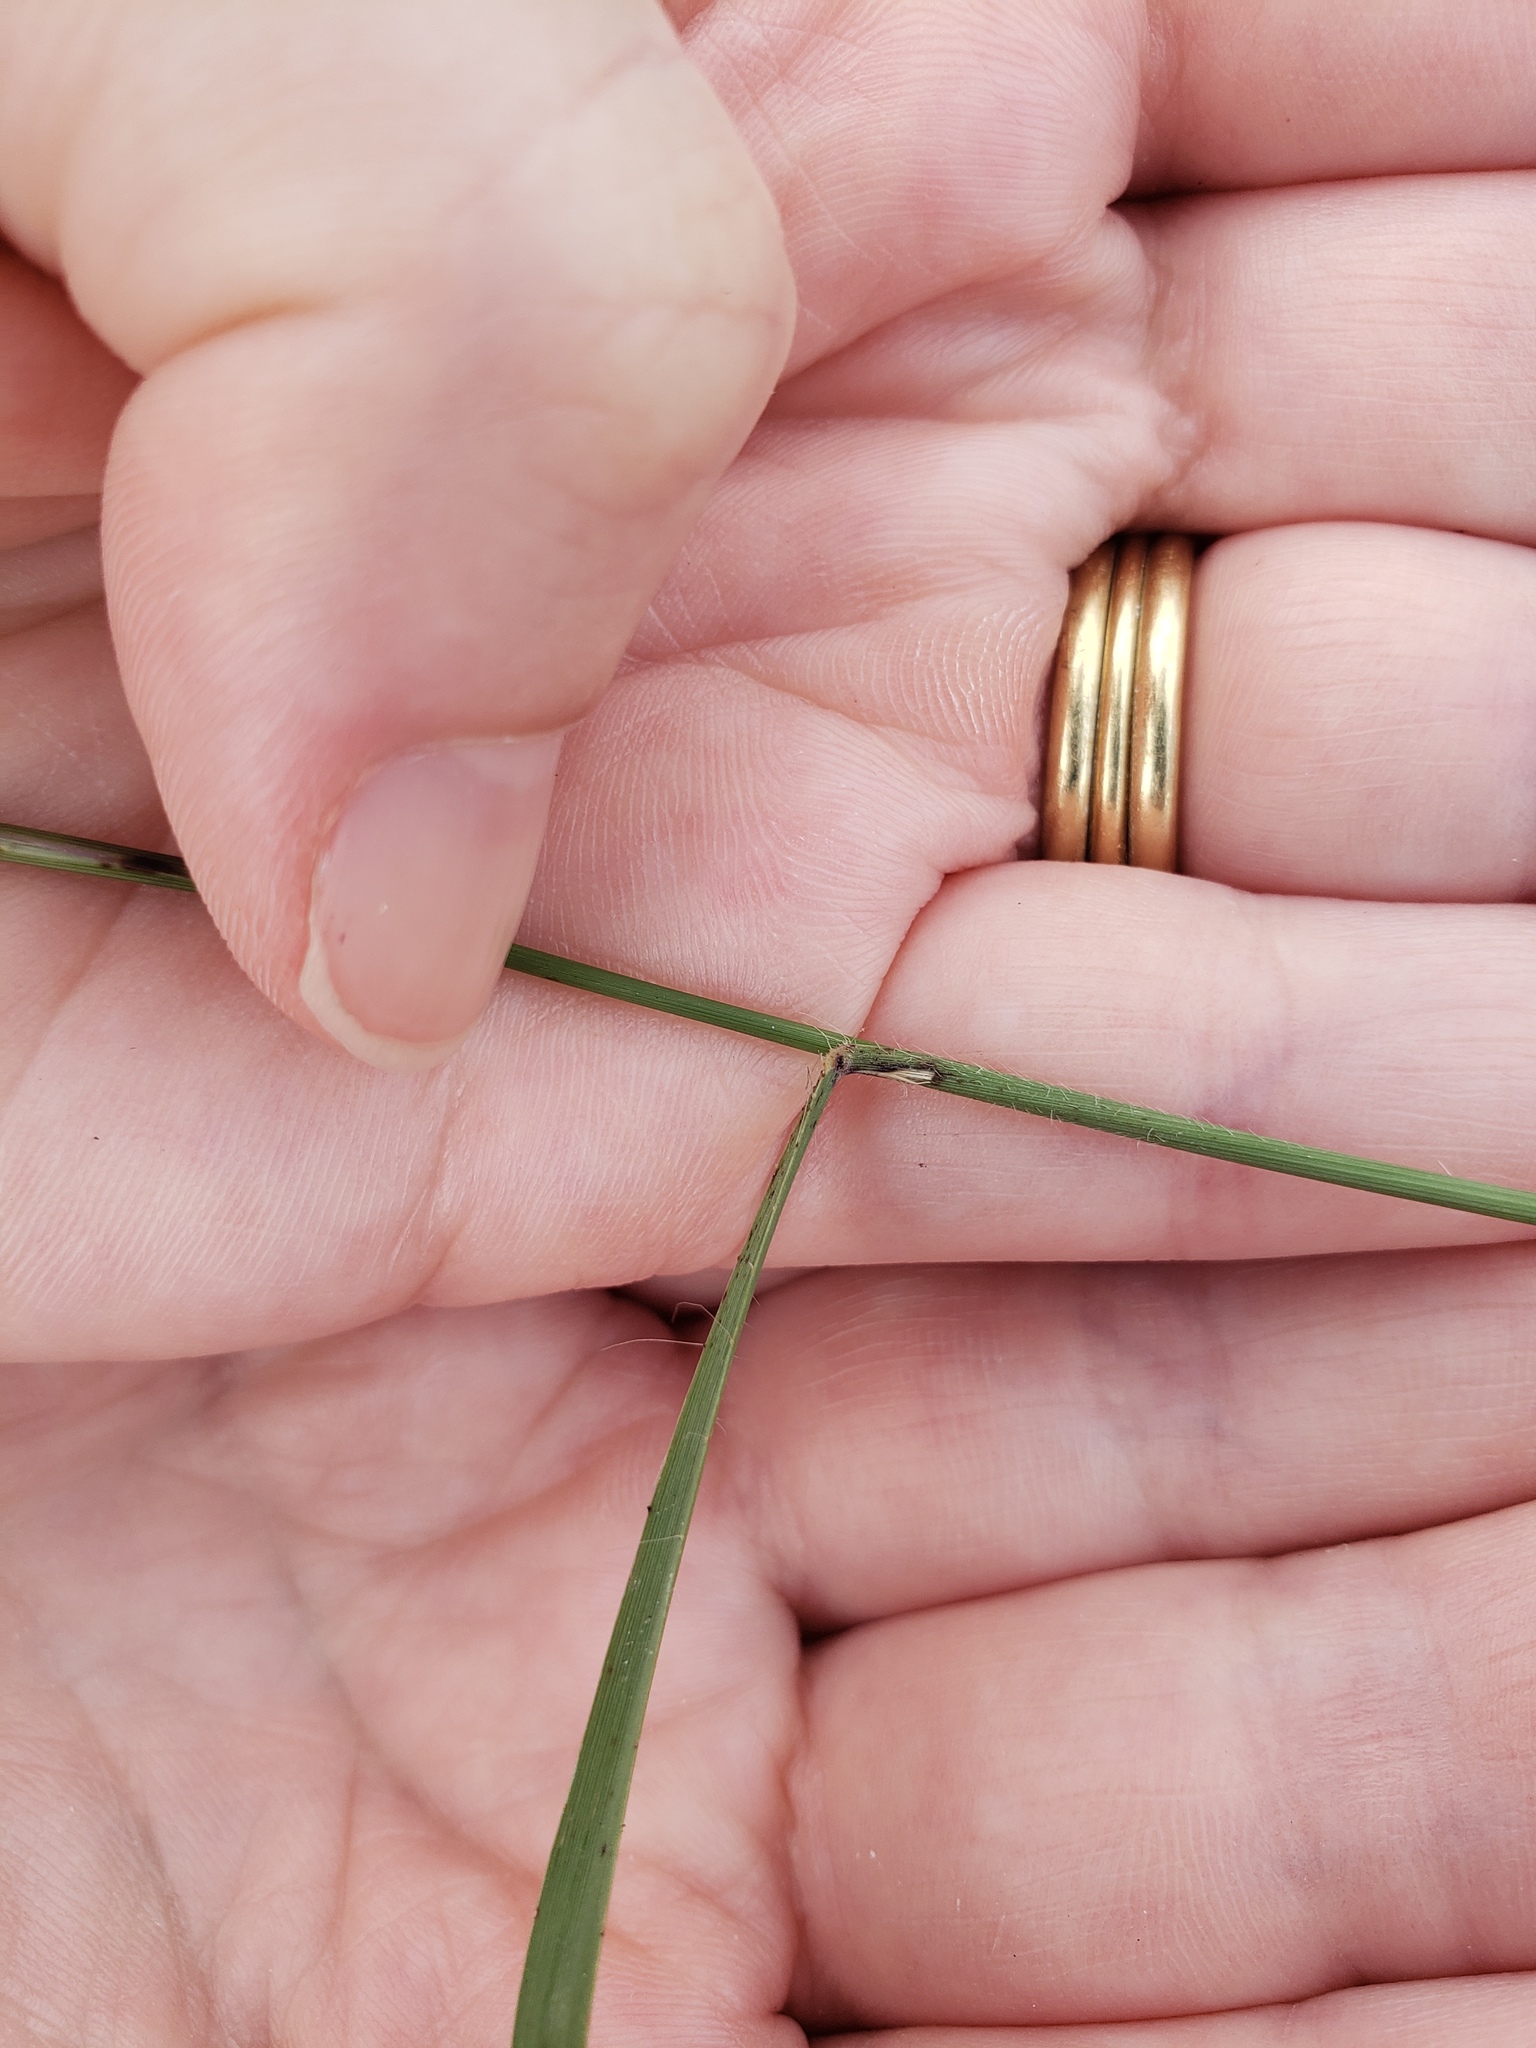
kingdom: Plantae
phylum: Tracheophyta
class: Liliopsida
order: Poales
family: Poaceae
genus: Bouteloua
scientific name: Bouteloua curtipendula
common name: Side-oats grama
